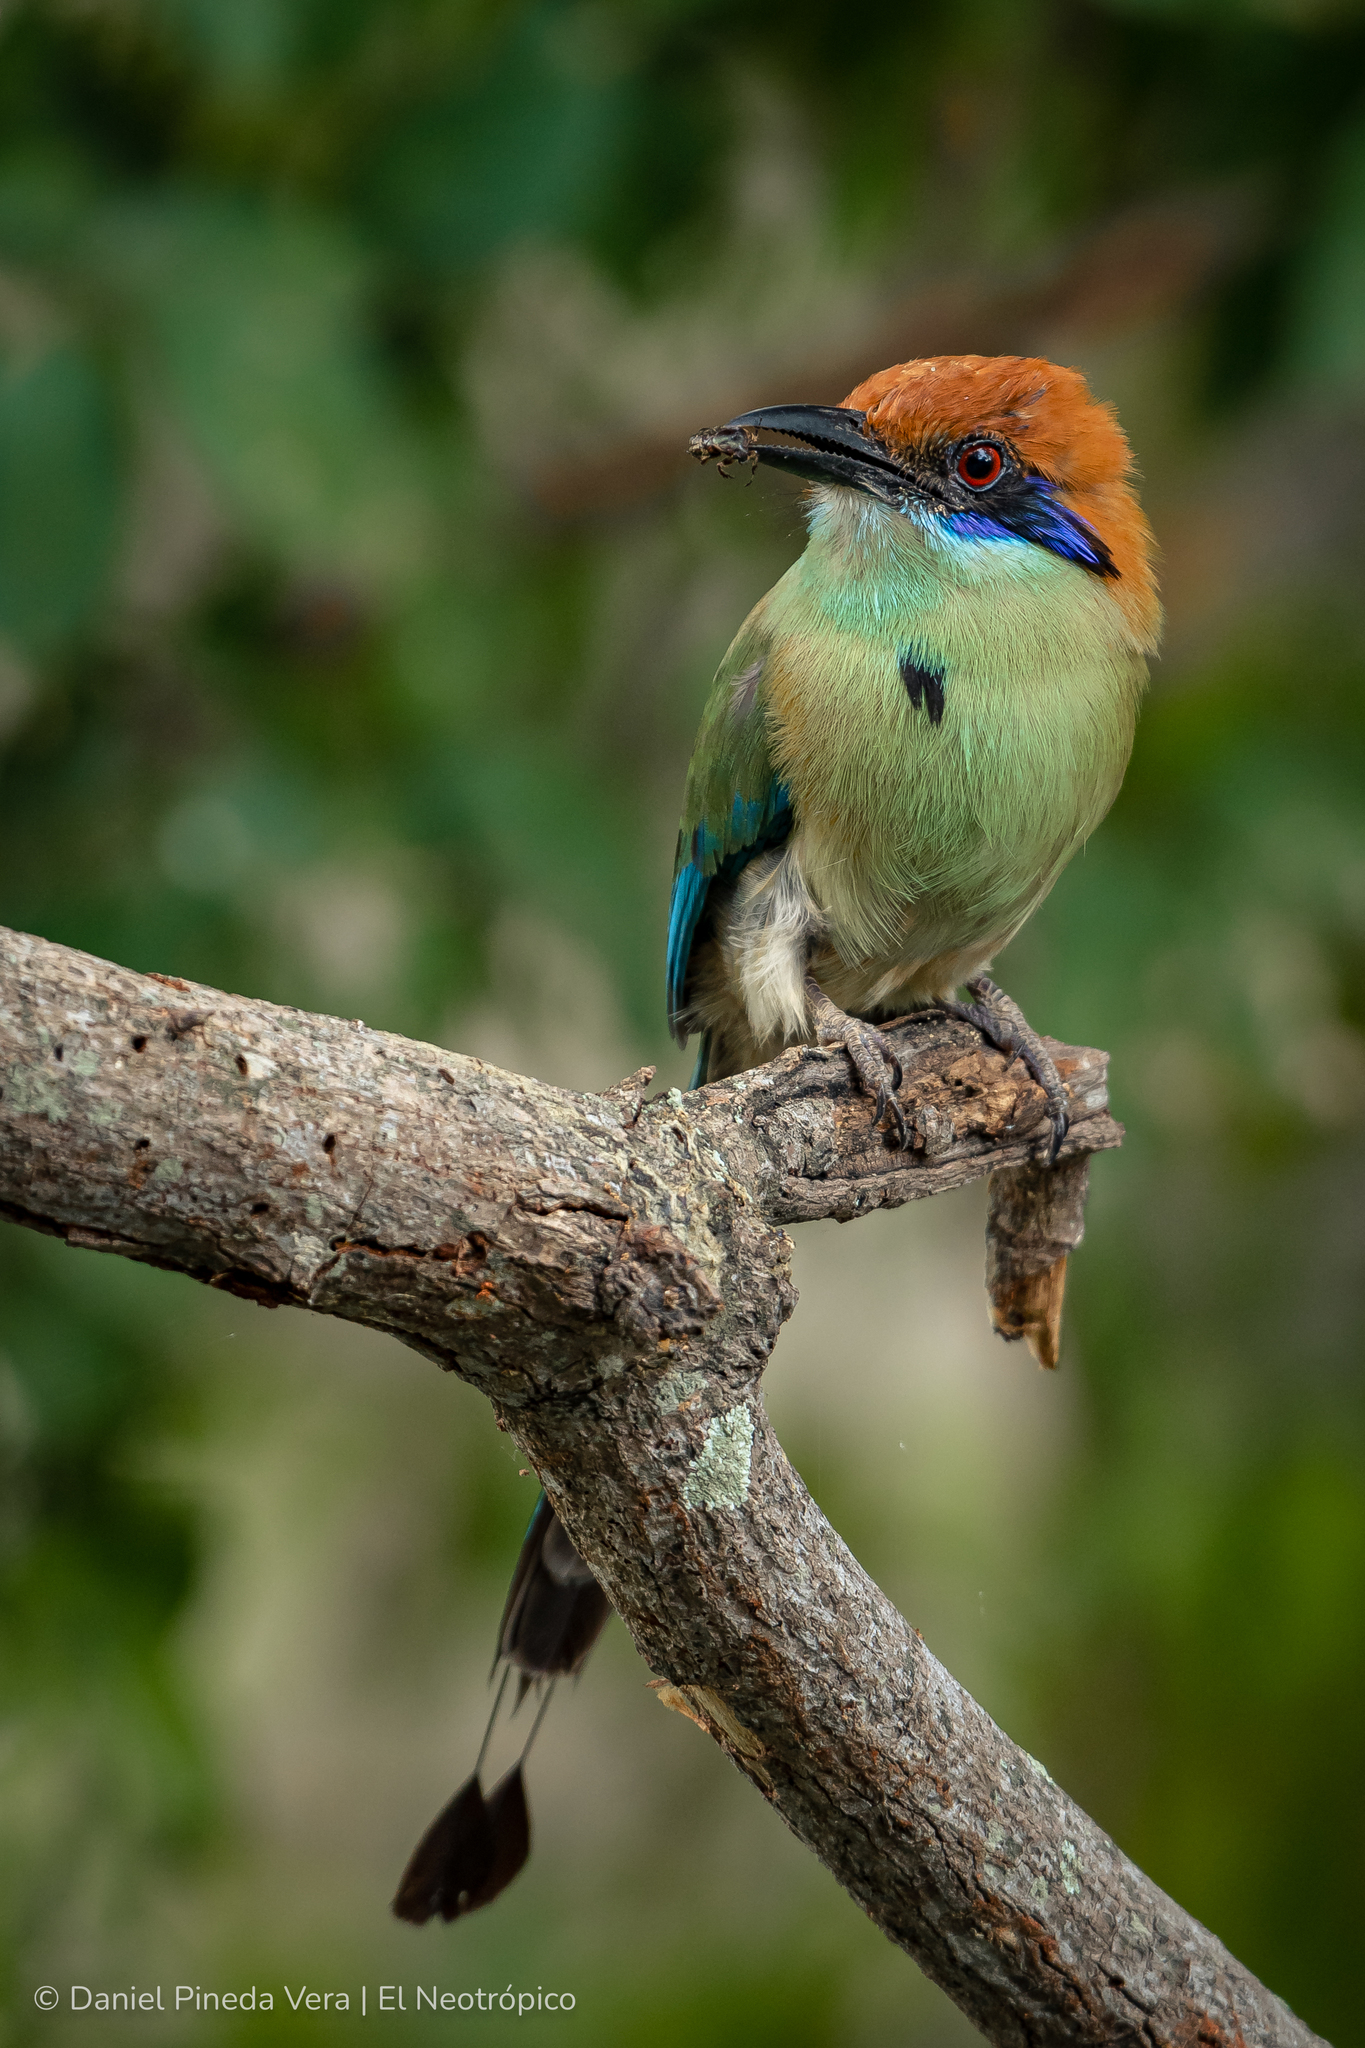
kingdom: Animalia
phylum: Chordata
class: Aves
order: Coraciiformes
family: Momotidae
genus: Momotus
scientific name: Momotus mexicanus
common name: Russet-crowned motmot
